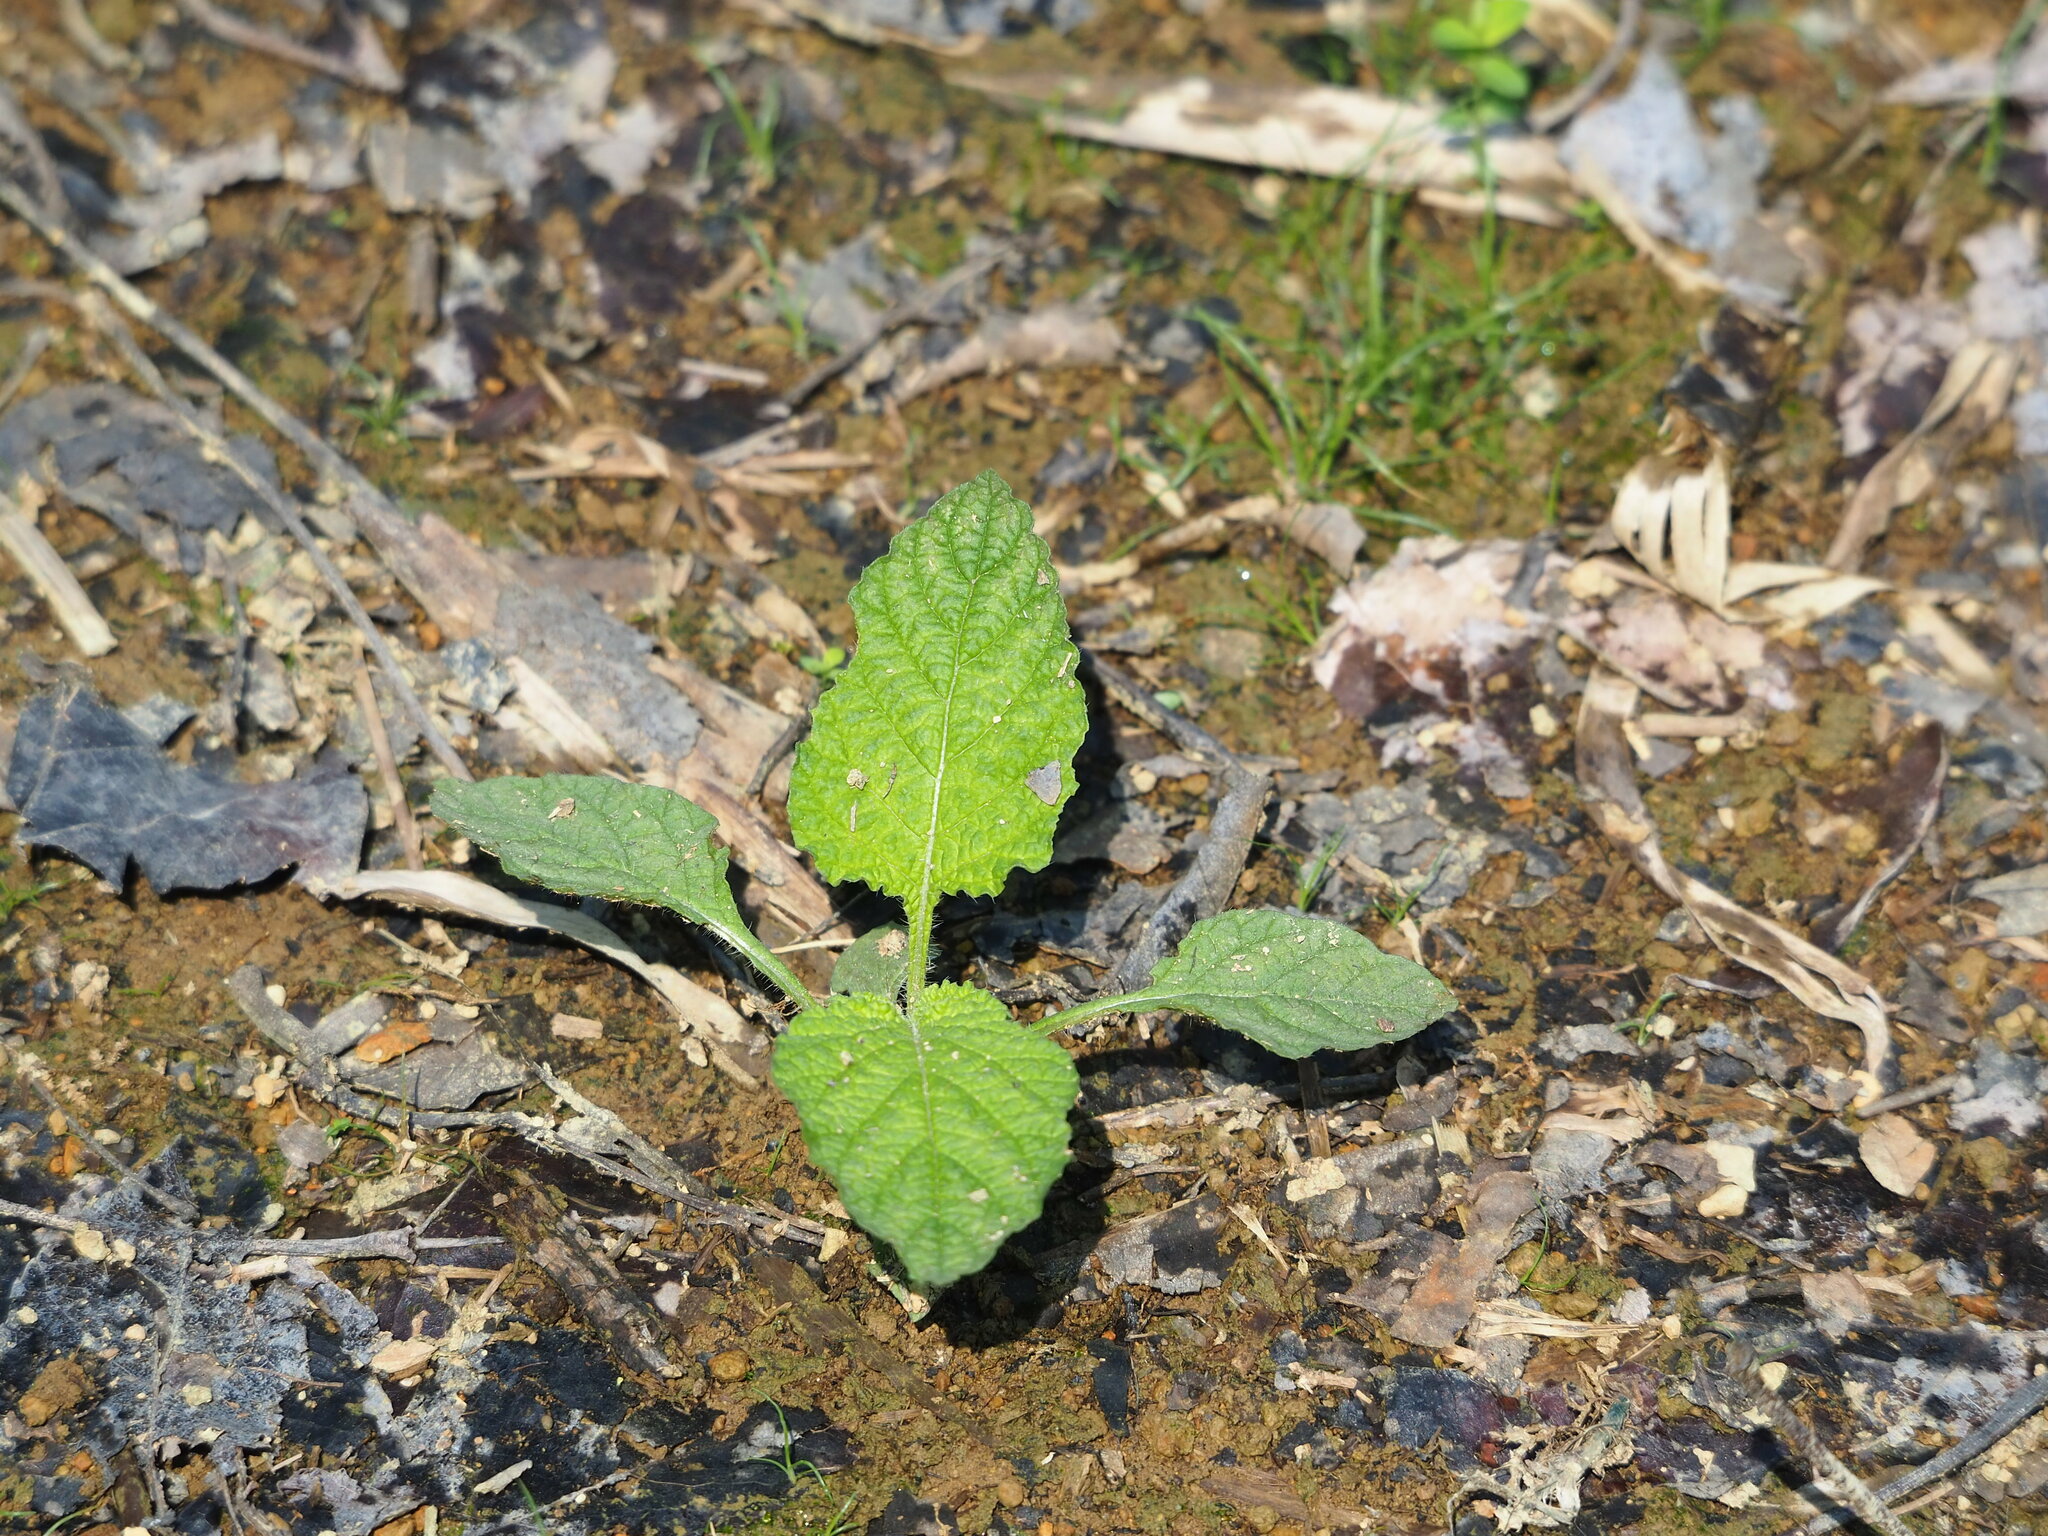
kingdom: Plantae
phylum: Tracheophyta
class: Magnoliopsida
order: Boraginales
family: Heliotropiaceae
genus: Heliotropium
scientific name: Heliotropium indicum
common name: Indian heliotrope
